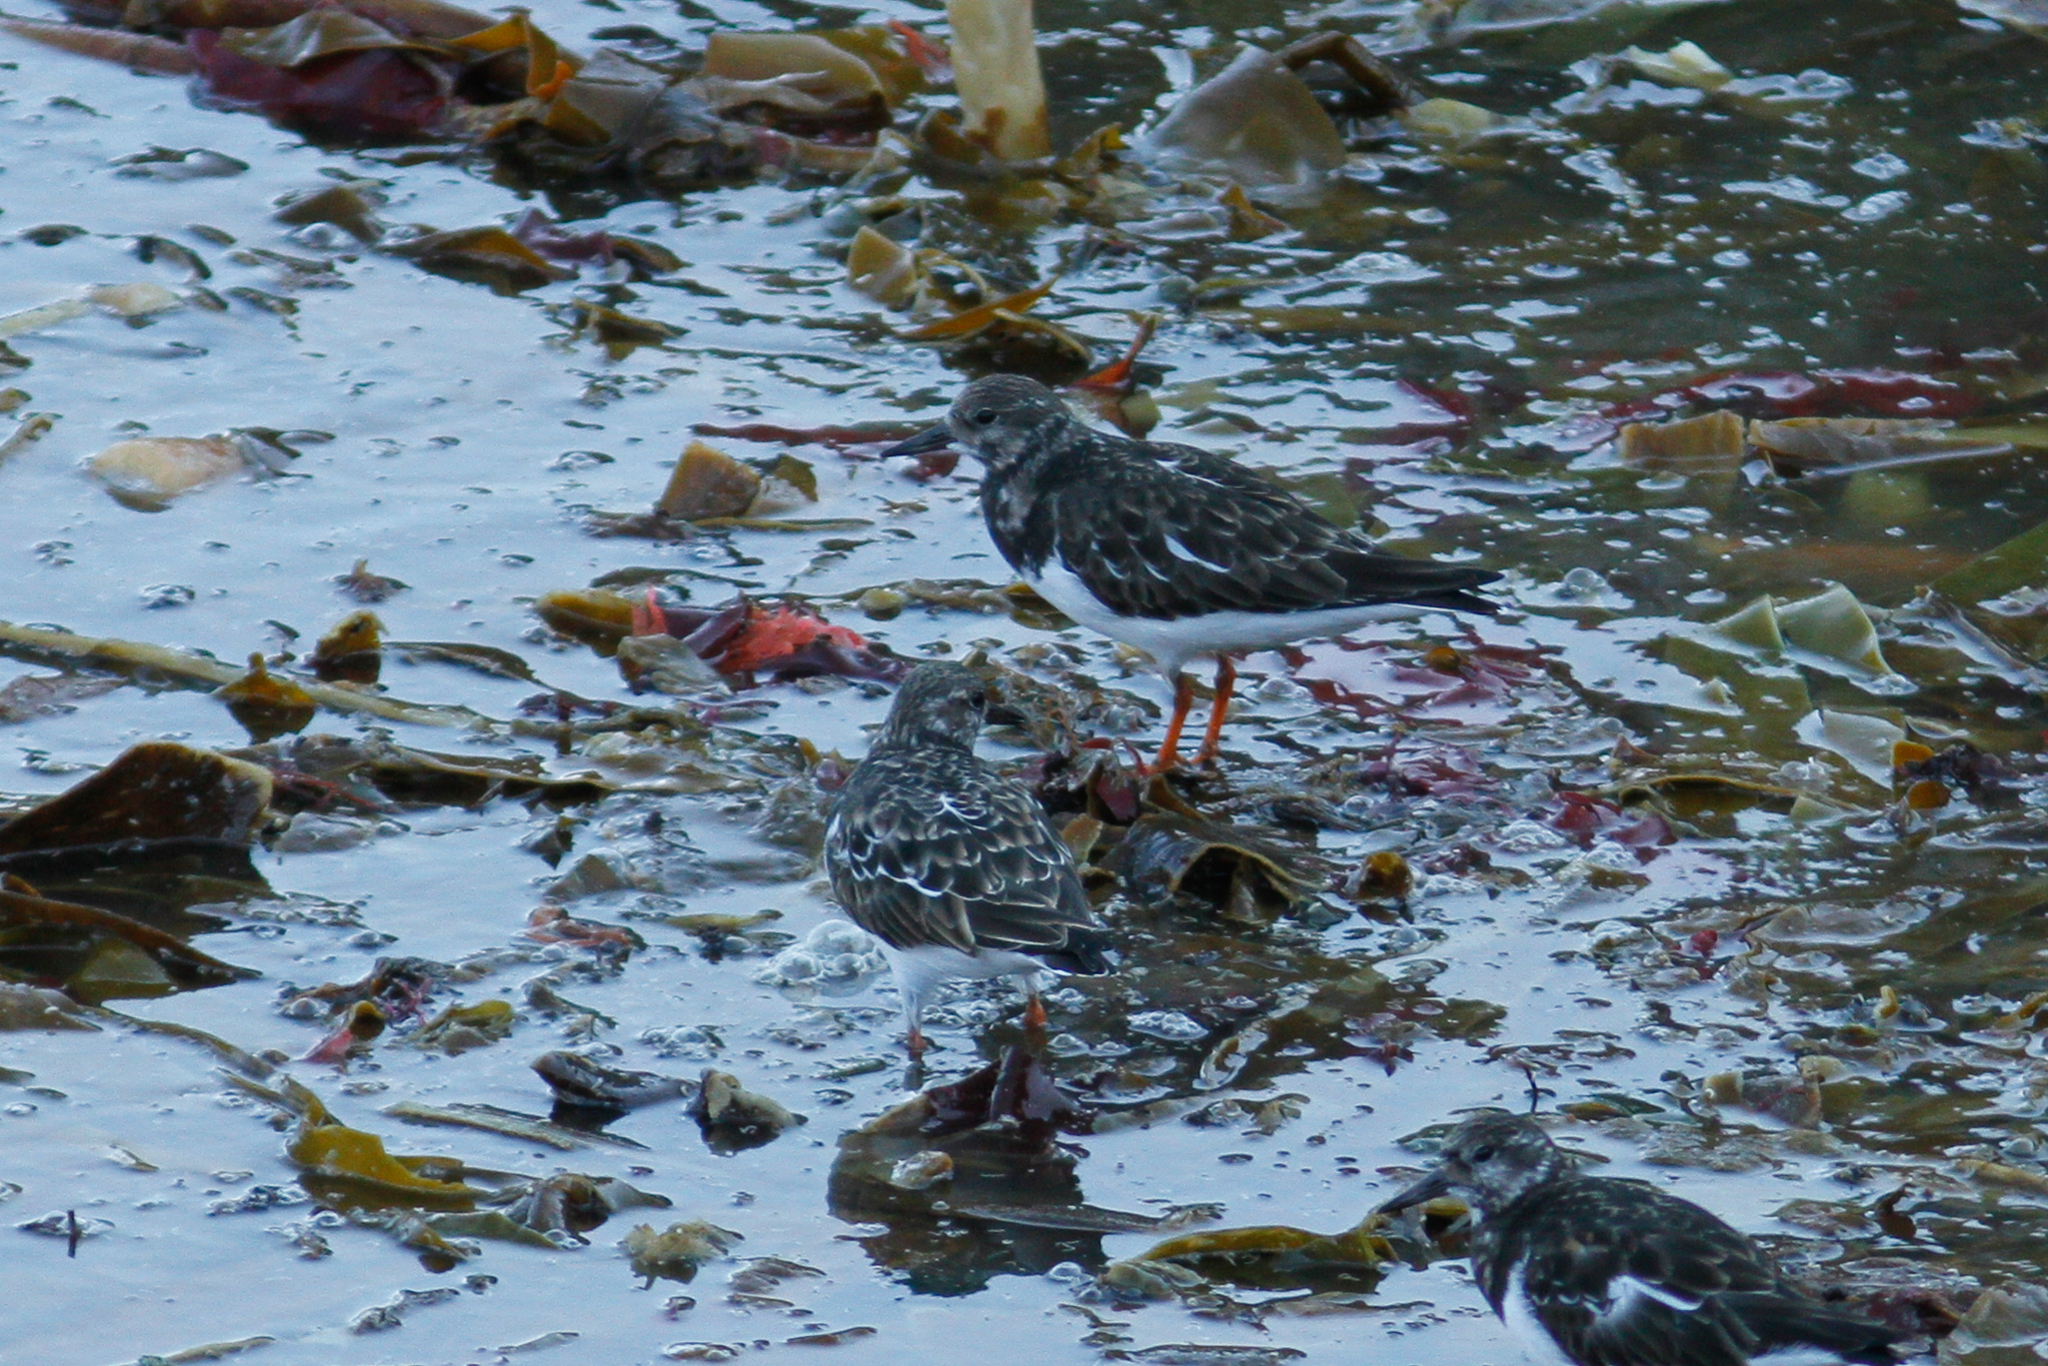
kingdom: Animalia
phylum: Chordata
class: Aves
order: Charadriiformes
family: Scolopacidae
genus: Arenaria
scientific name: Arenaria interpres
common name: Ruddy turnstone
